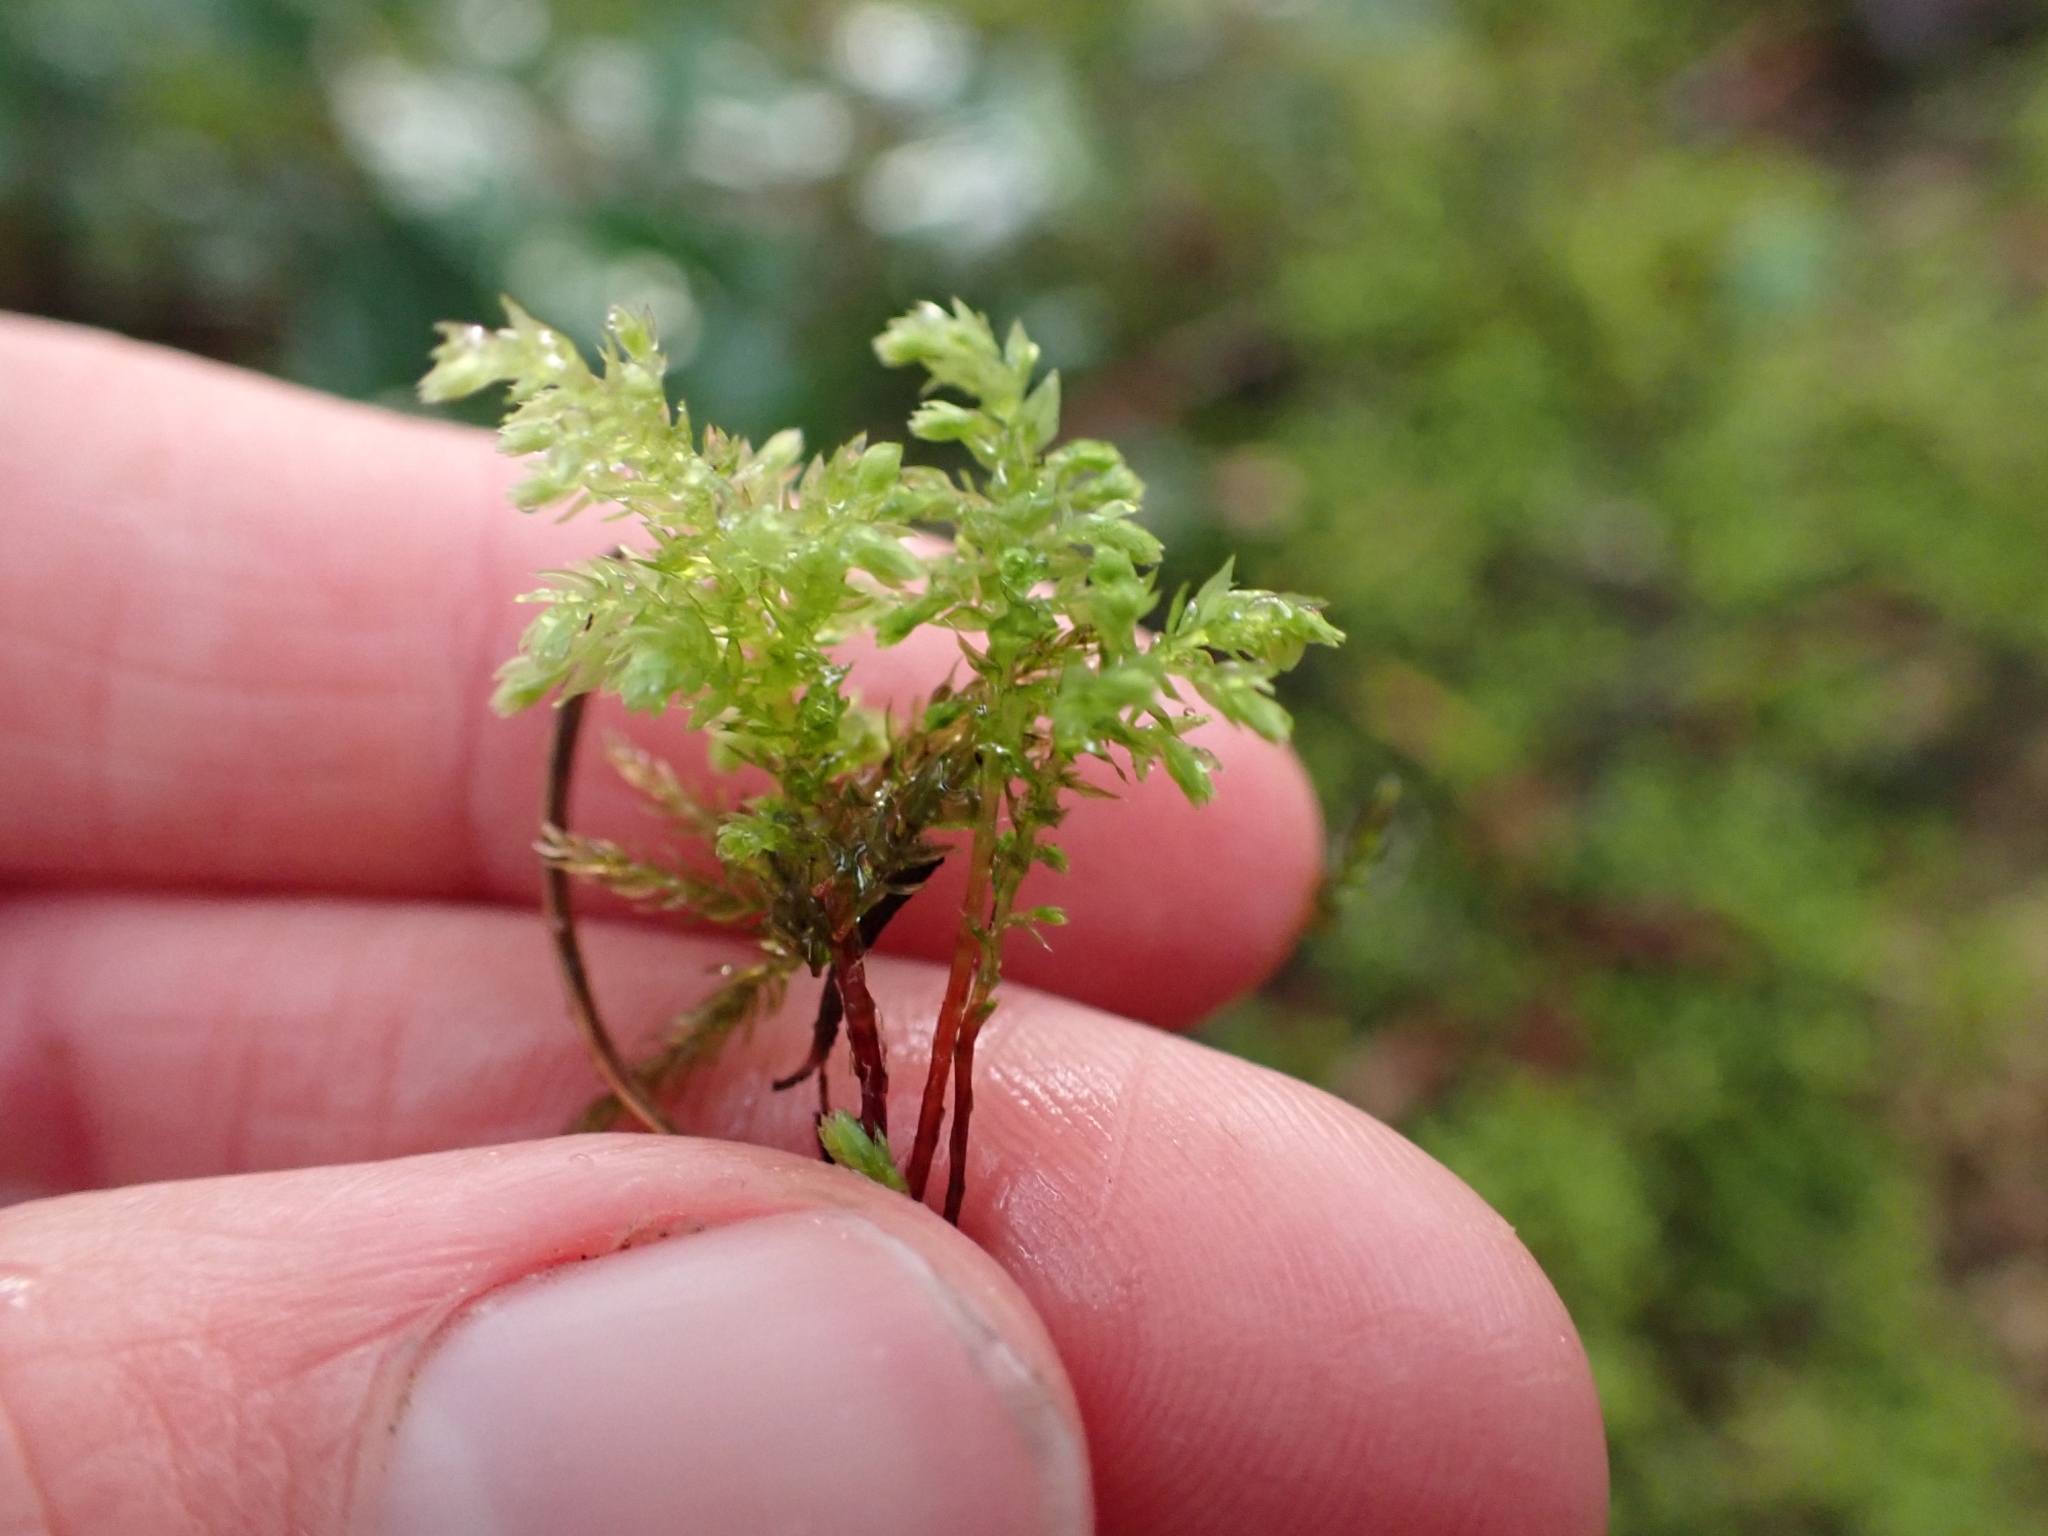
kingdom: Plantae
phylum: Bryophyta
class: Bryopsida
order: Bryales
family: Mniaceae
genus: Leucolepis
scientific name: Leucolepis acanthoneura
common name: Leucolepis umbrella moss
